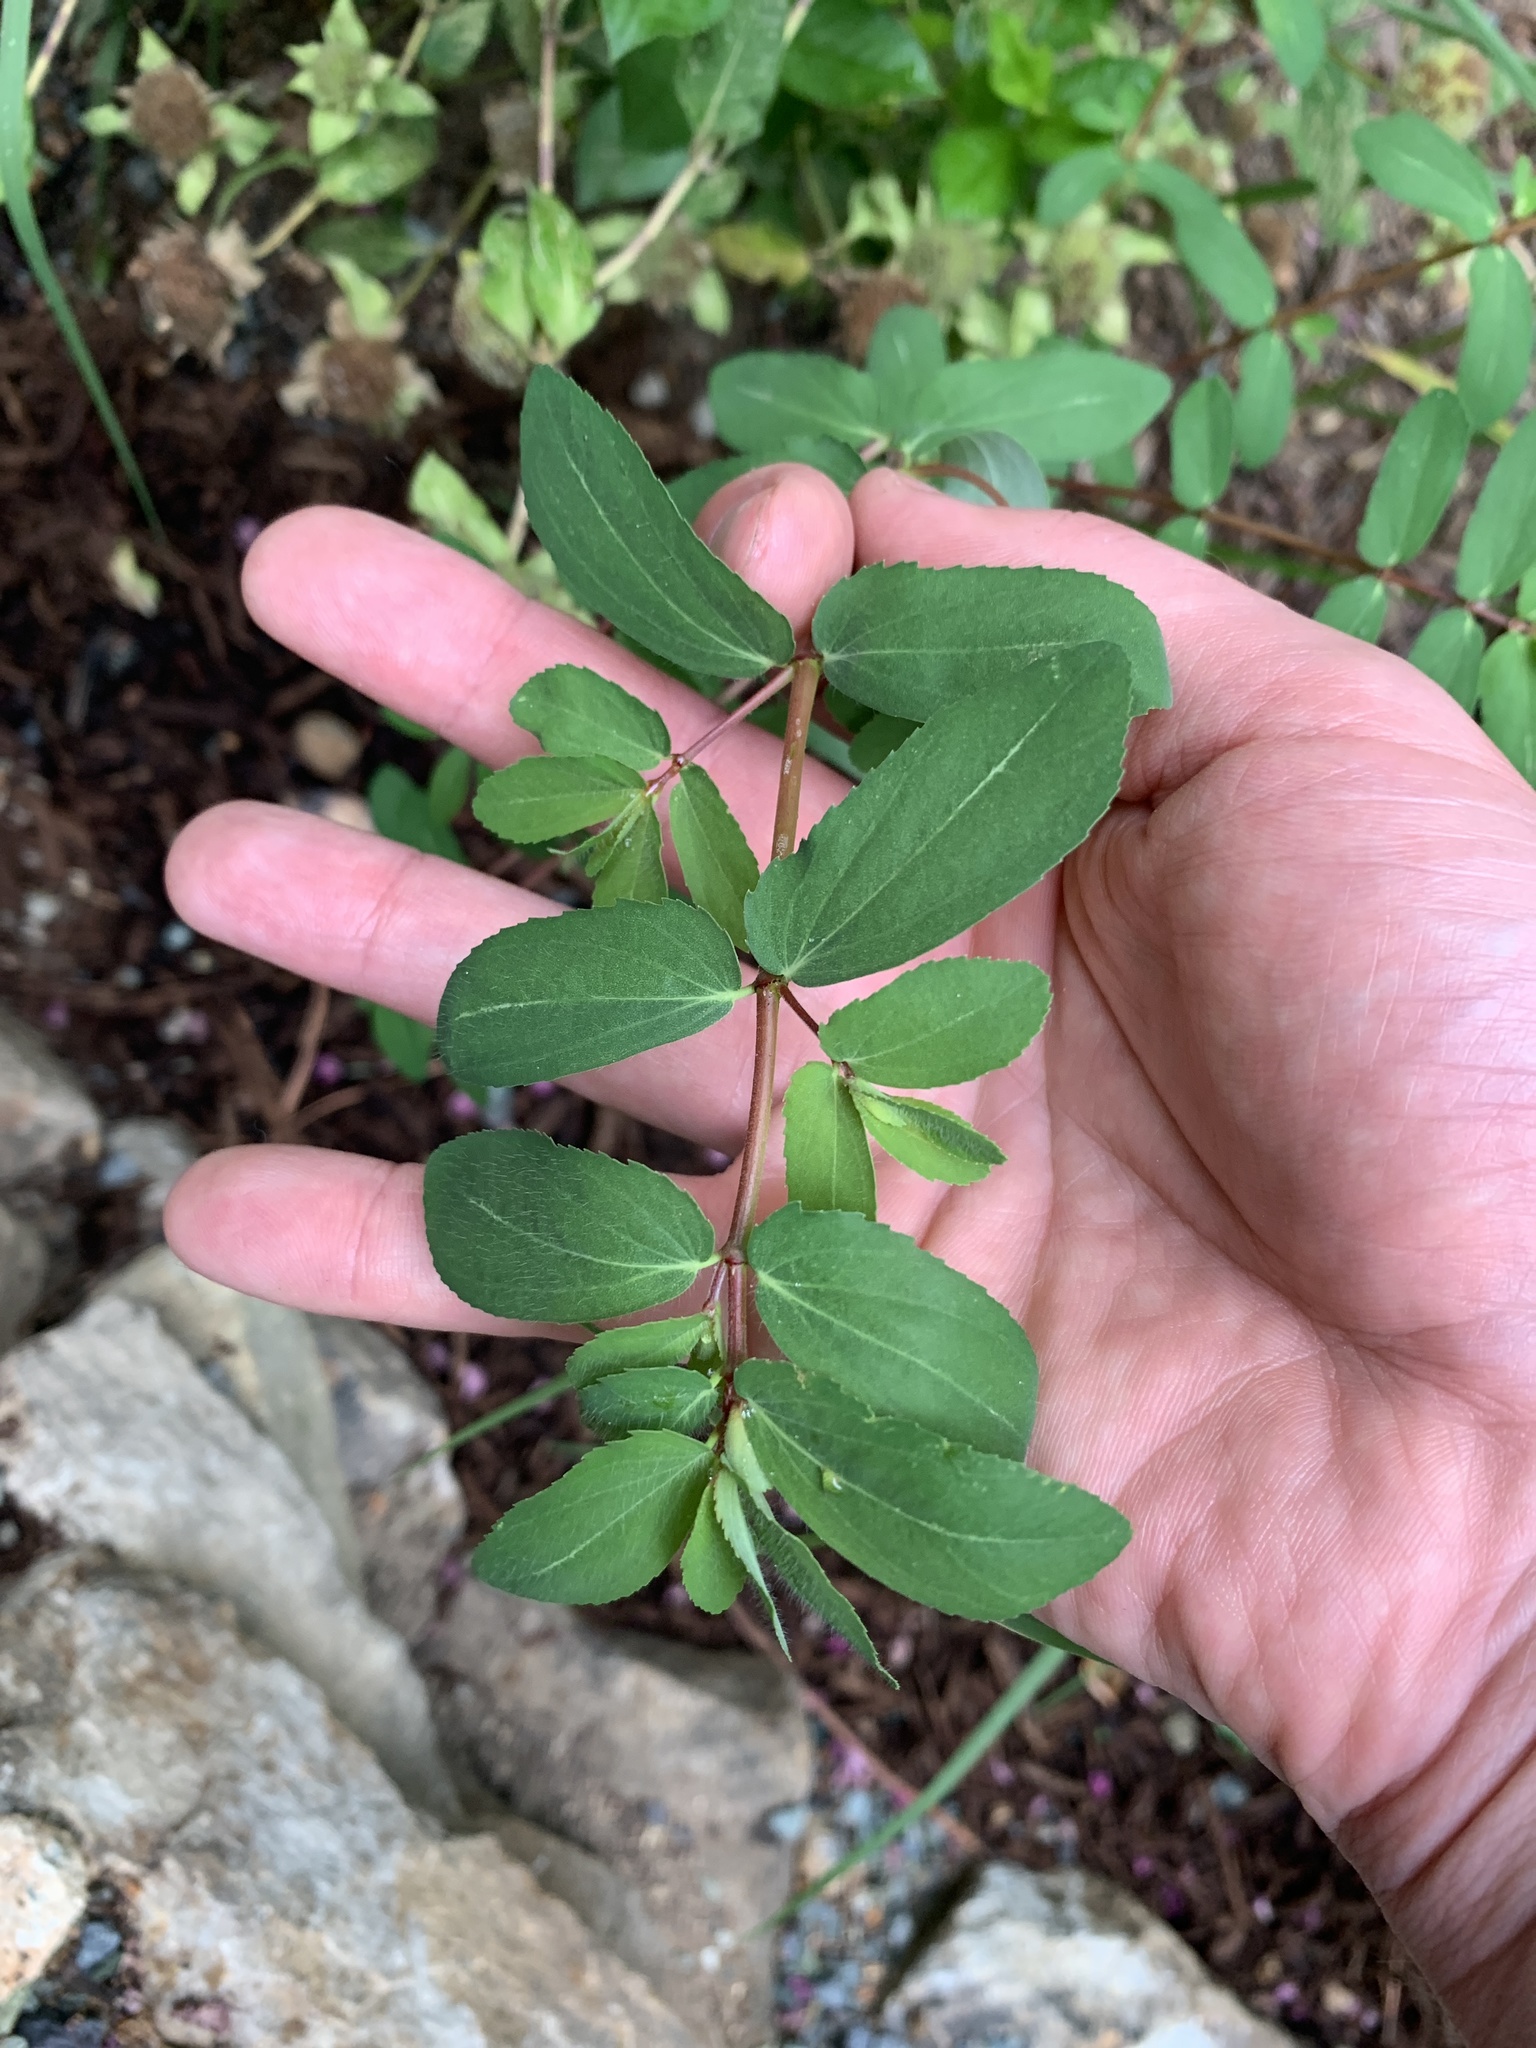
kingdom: Plantae
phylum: Tracheophyta
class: Magnoliopsida
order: Malpighiales
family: Euphorbiaceae
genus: Euphorbia
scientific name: Euphorbia nutans
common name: Eyebane
